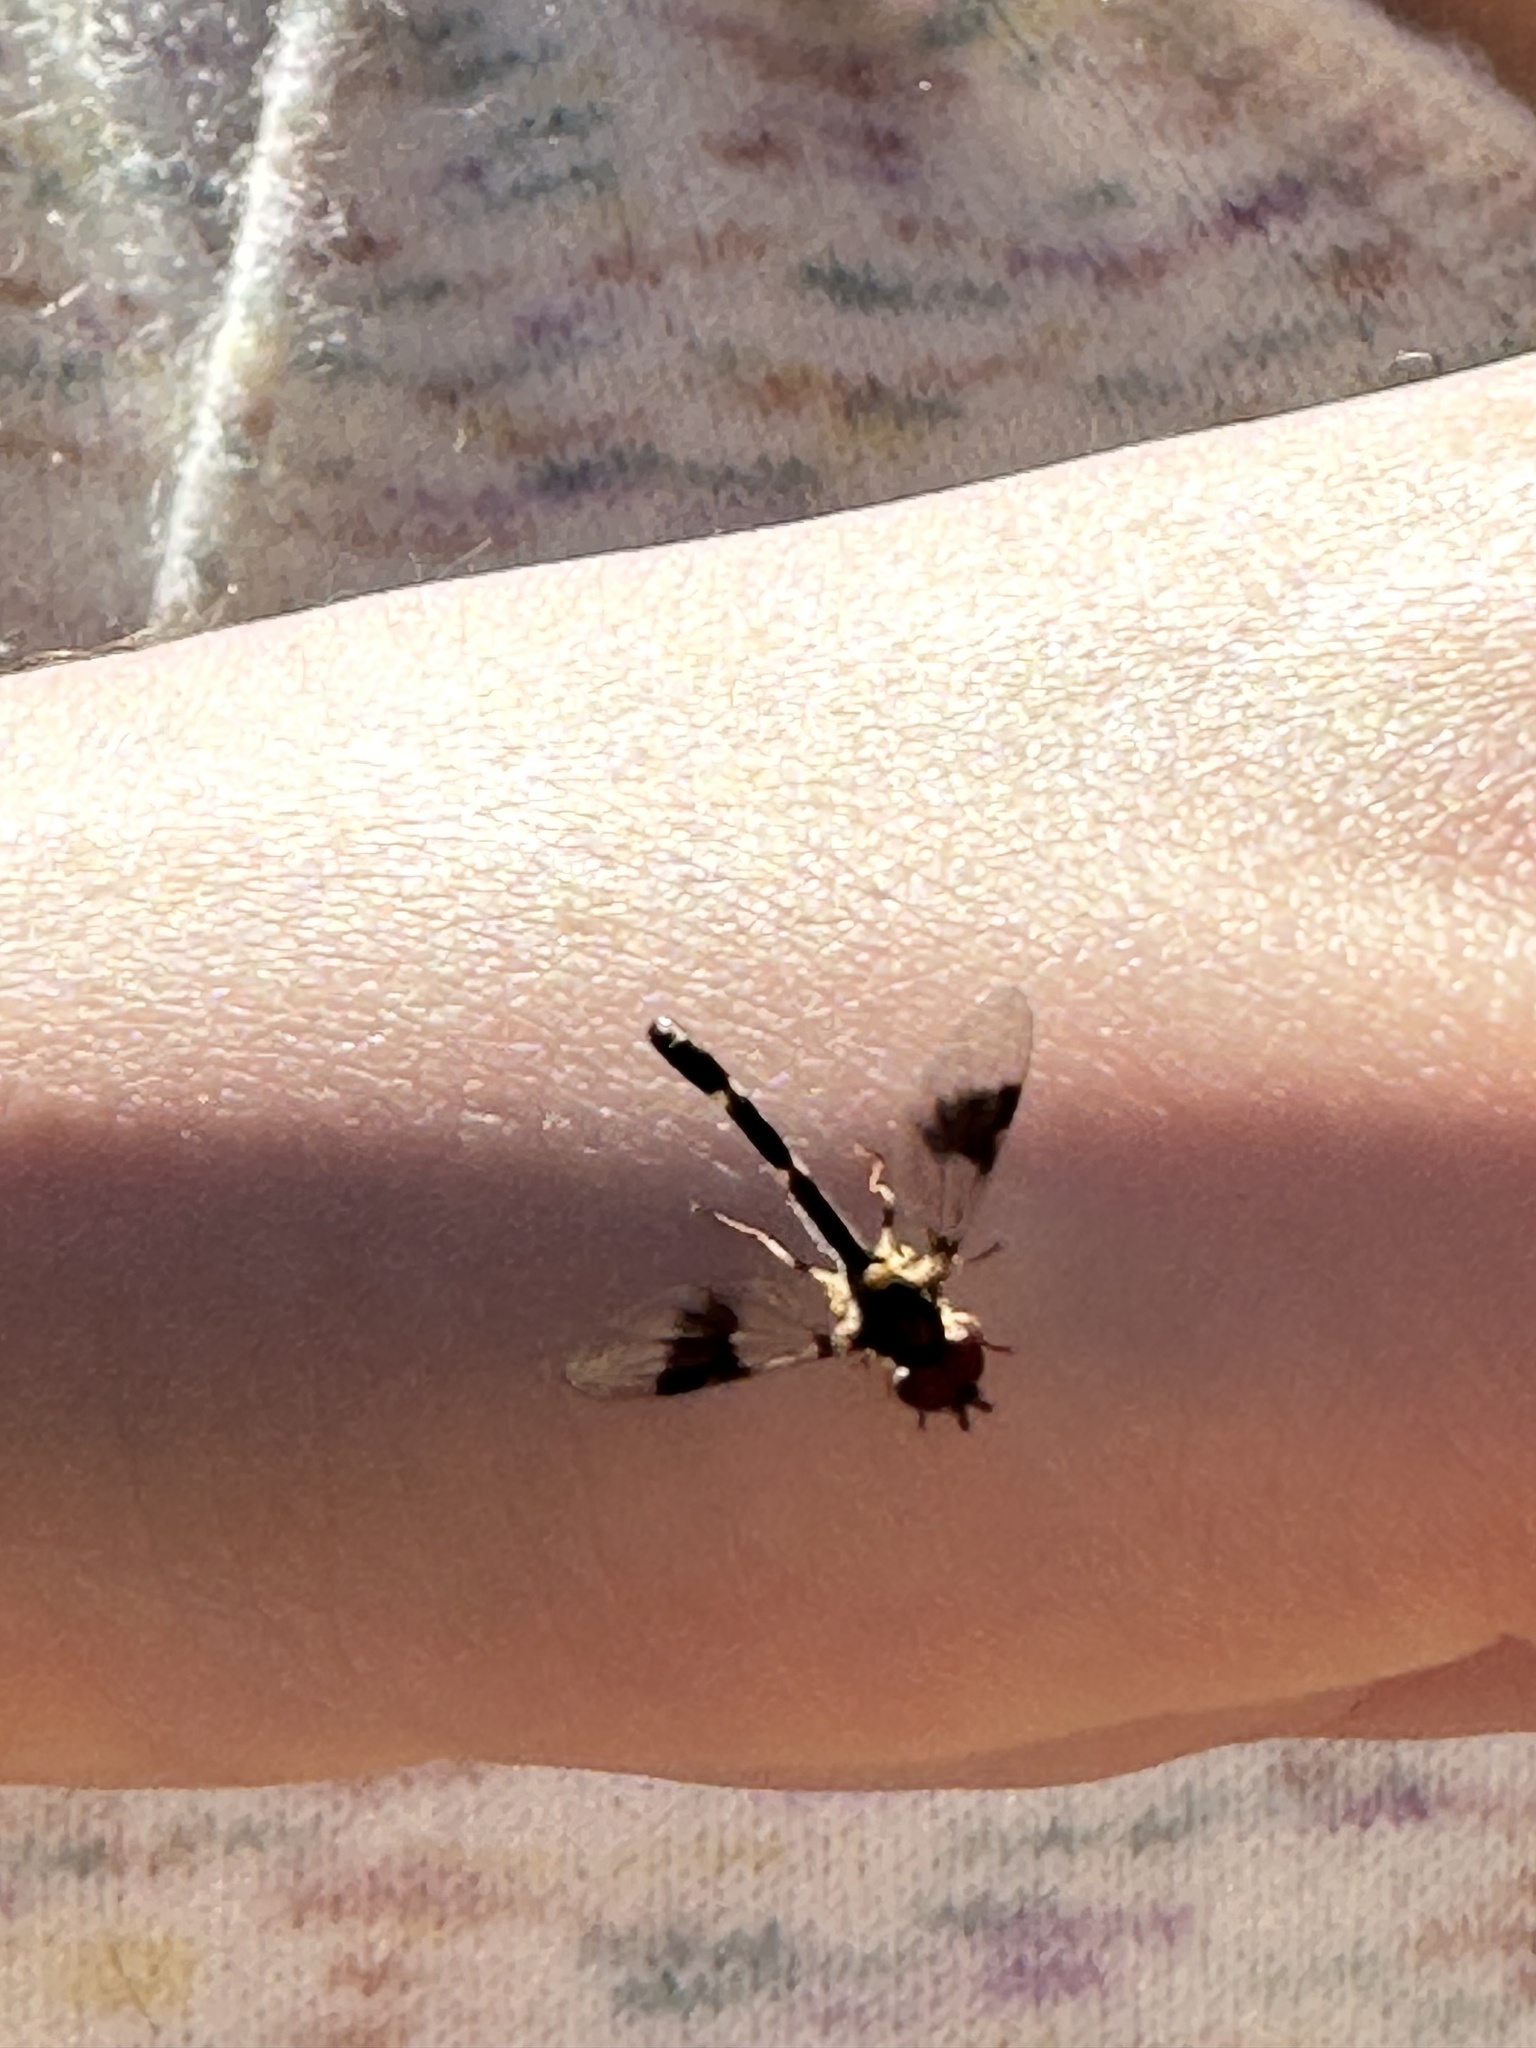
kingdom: Animalia
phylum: Arthropoda
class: Insecta
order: Diptera
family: Syrphidae
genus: Hypocritanus
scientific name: Hypocritanus fascipennis
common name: Eastern band-winged hover fly
